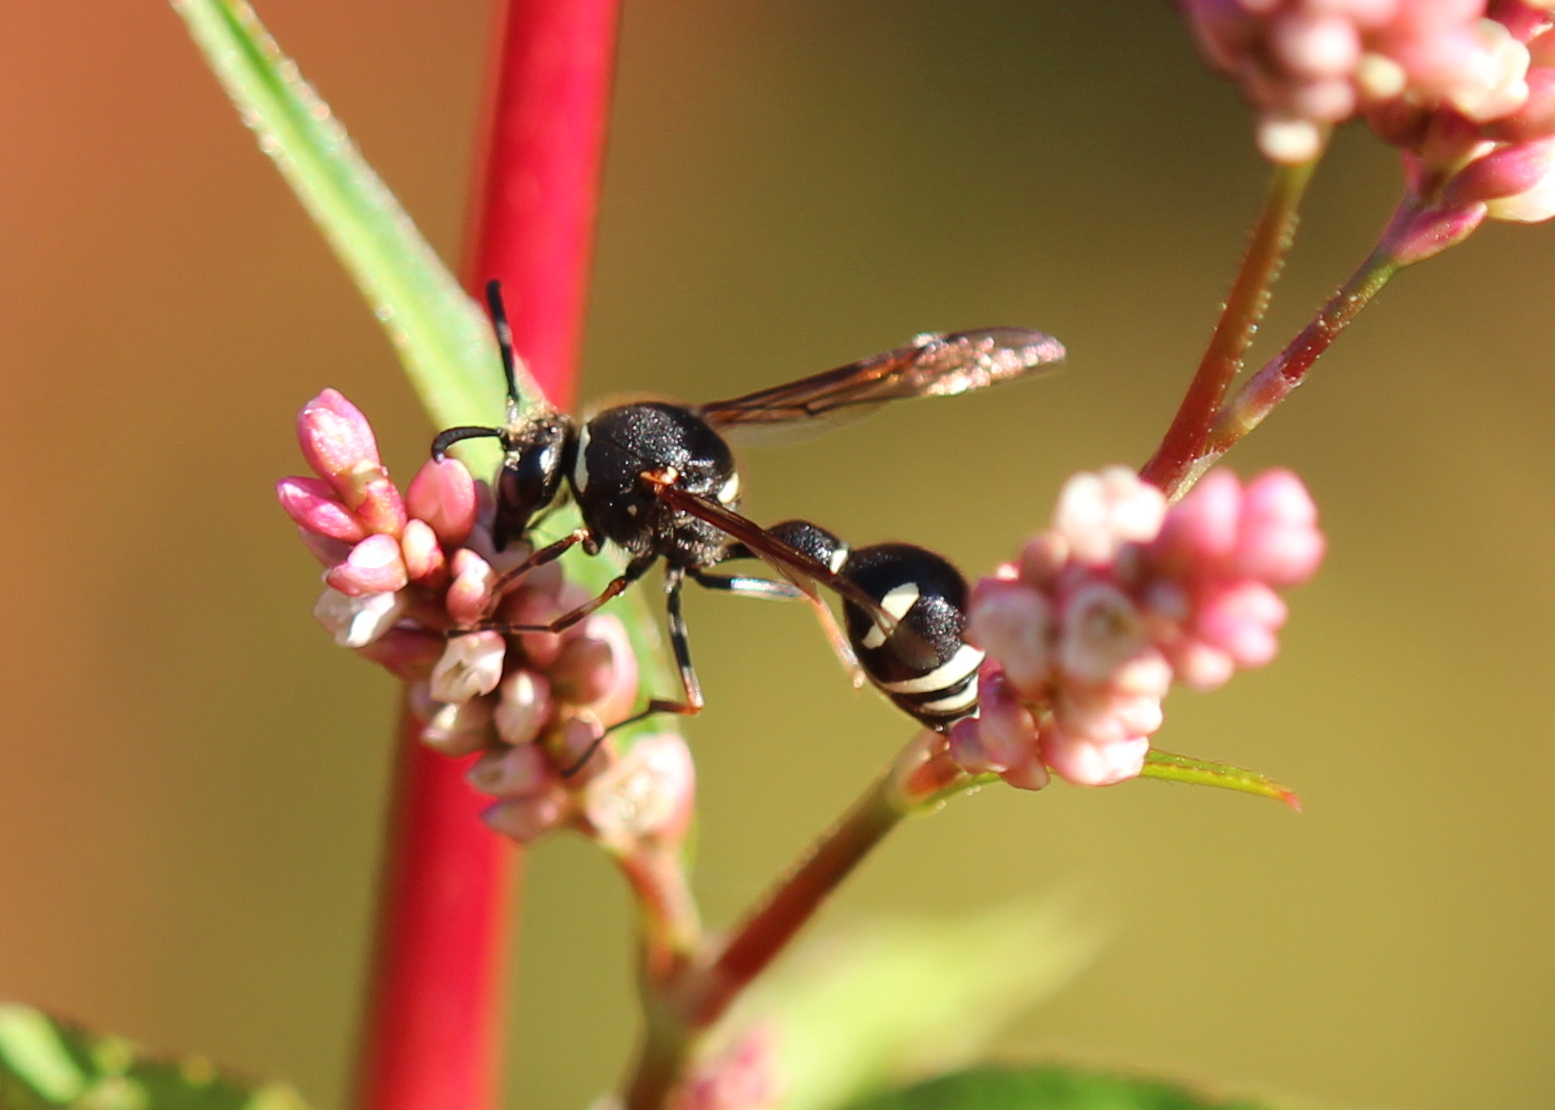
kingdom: Animalia
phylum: Arthropoda
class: Insecta
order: Hymenoptera
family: Vespidae
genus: Eumenes
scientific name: Eumenes crucifera
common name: Cross potter wasp
